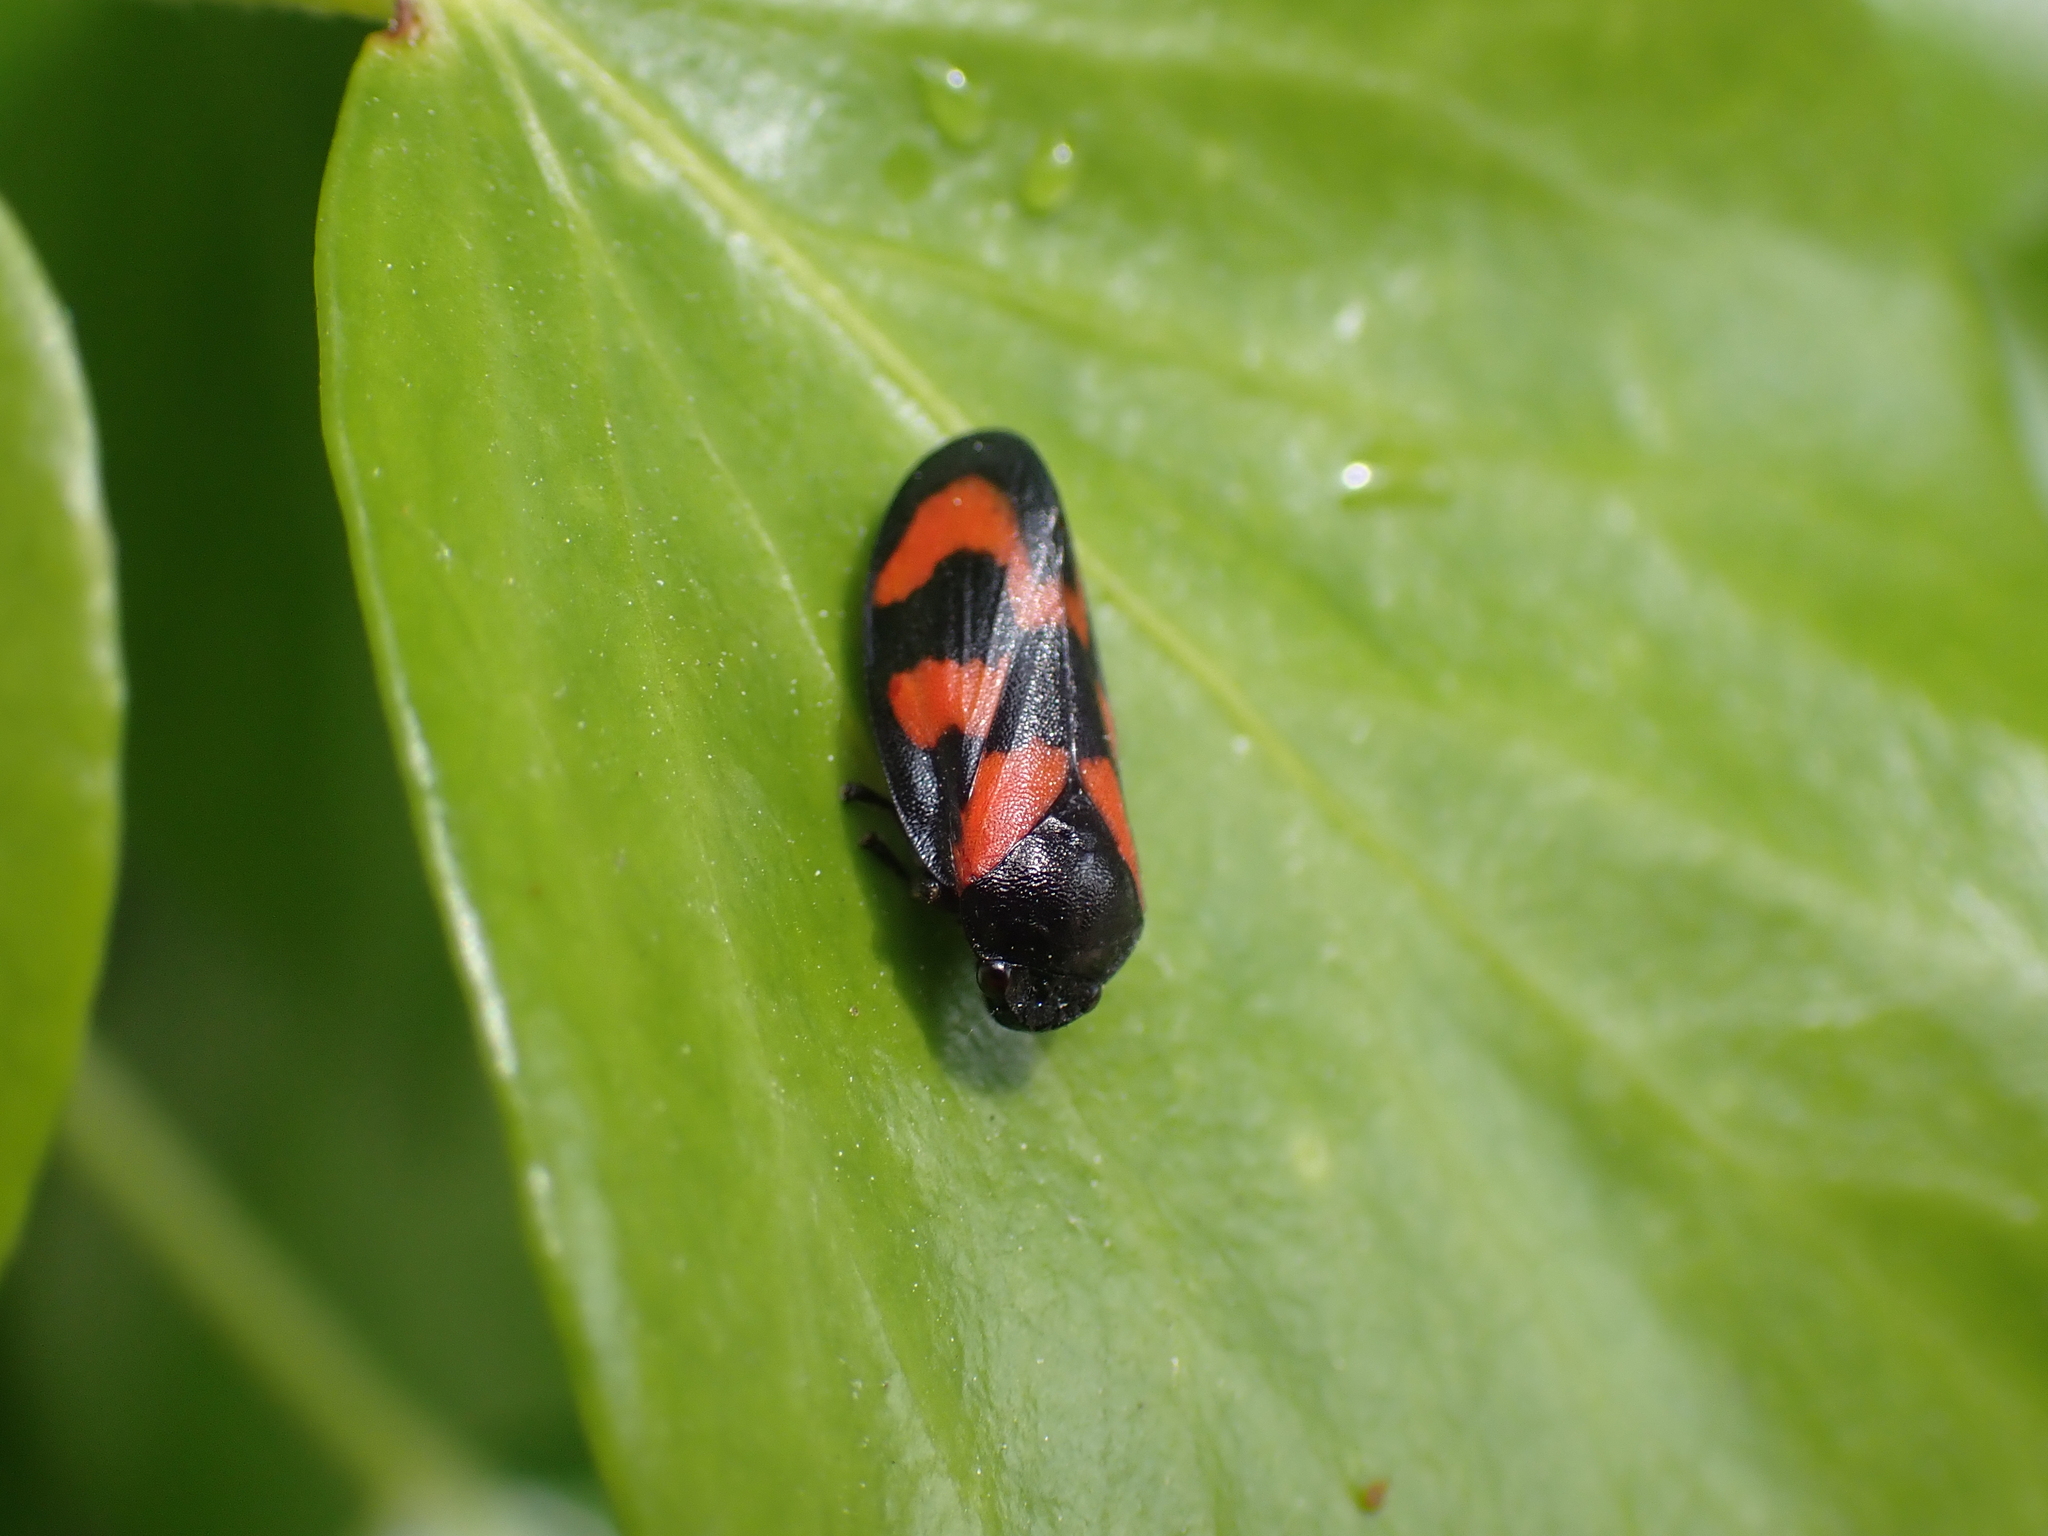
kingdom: Animalia
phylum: Arthropoda
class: Insecta
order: Hemiptera
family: Cercopidae
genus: Cercopis
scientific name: Cercopis vulnerata
